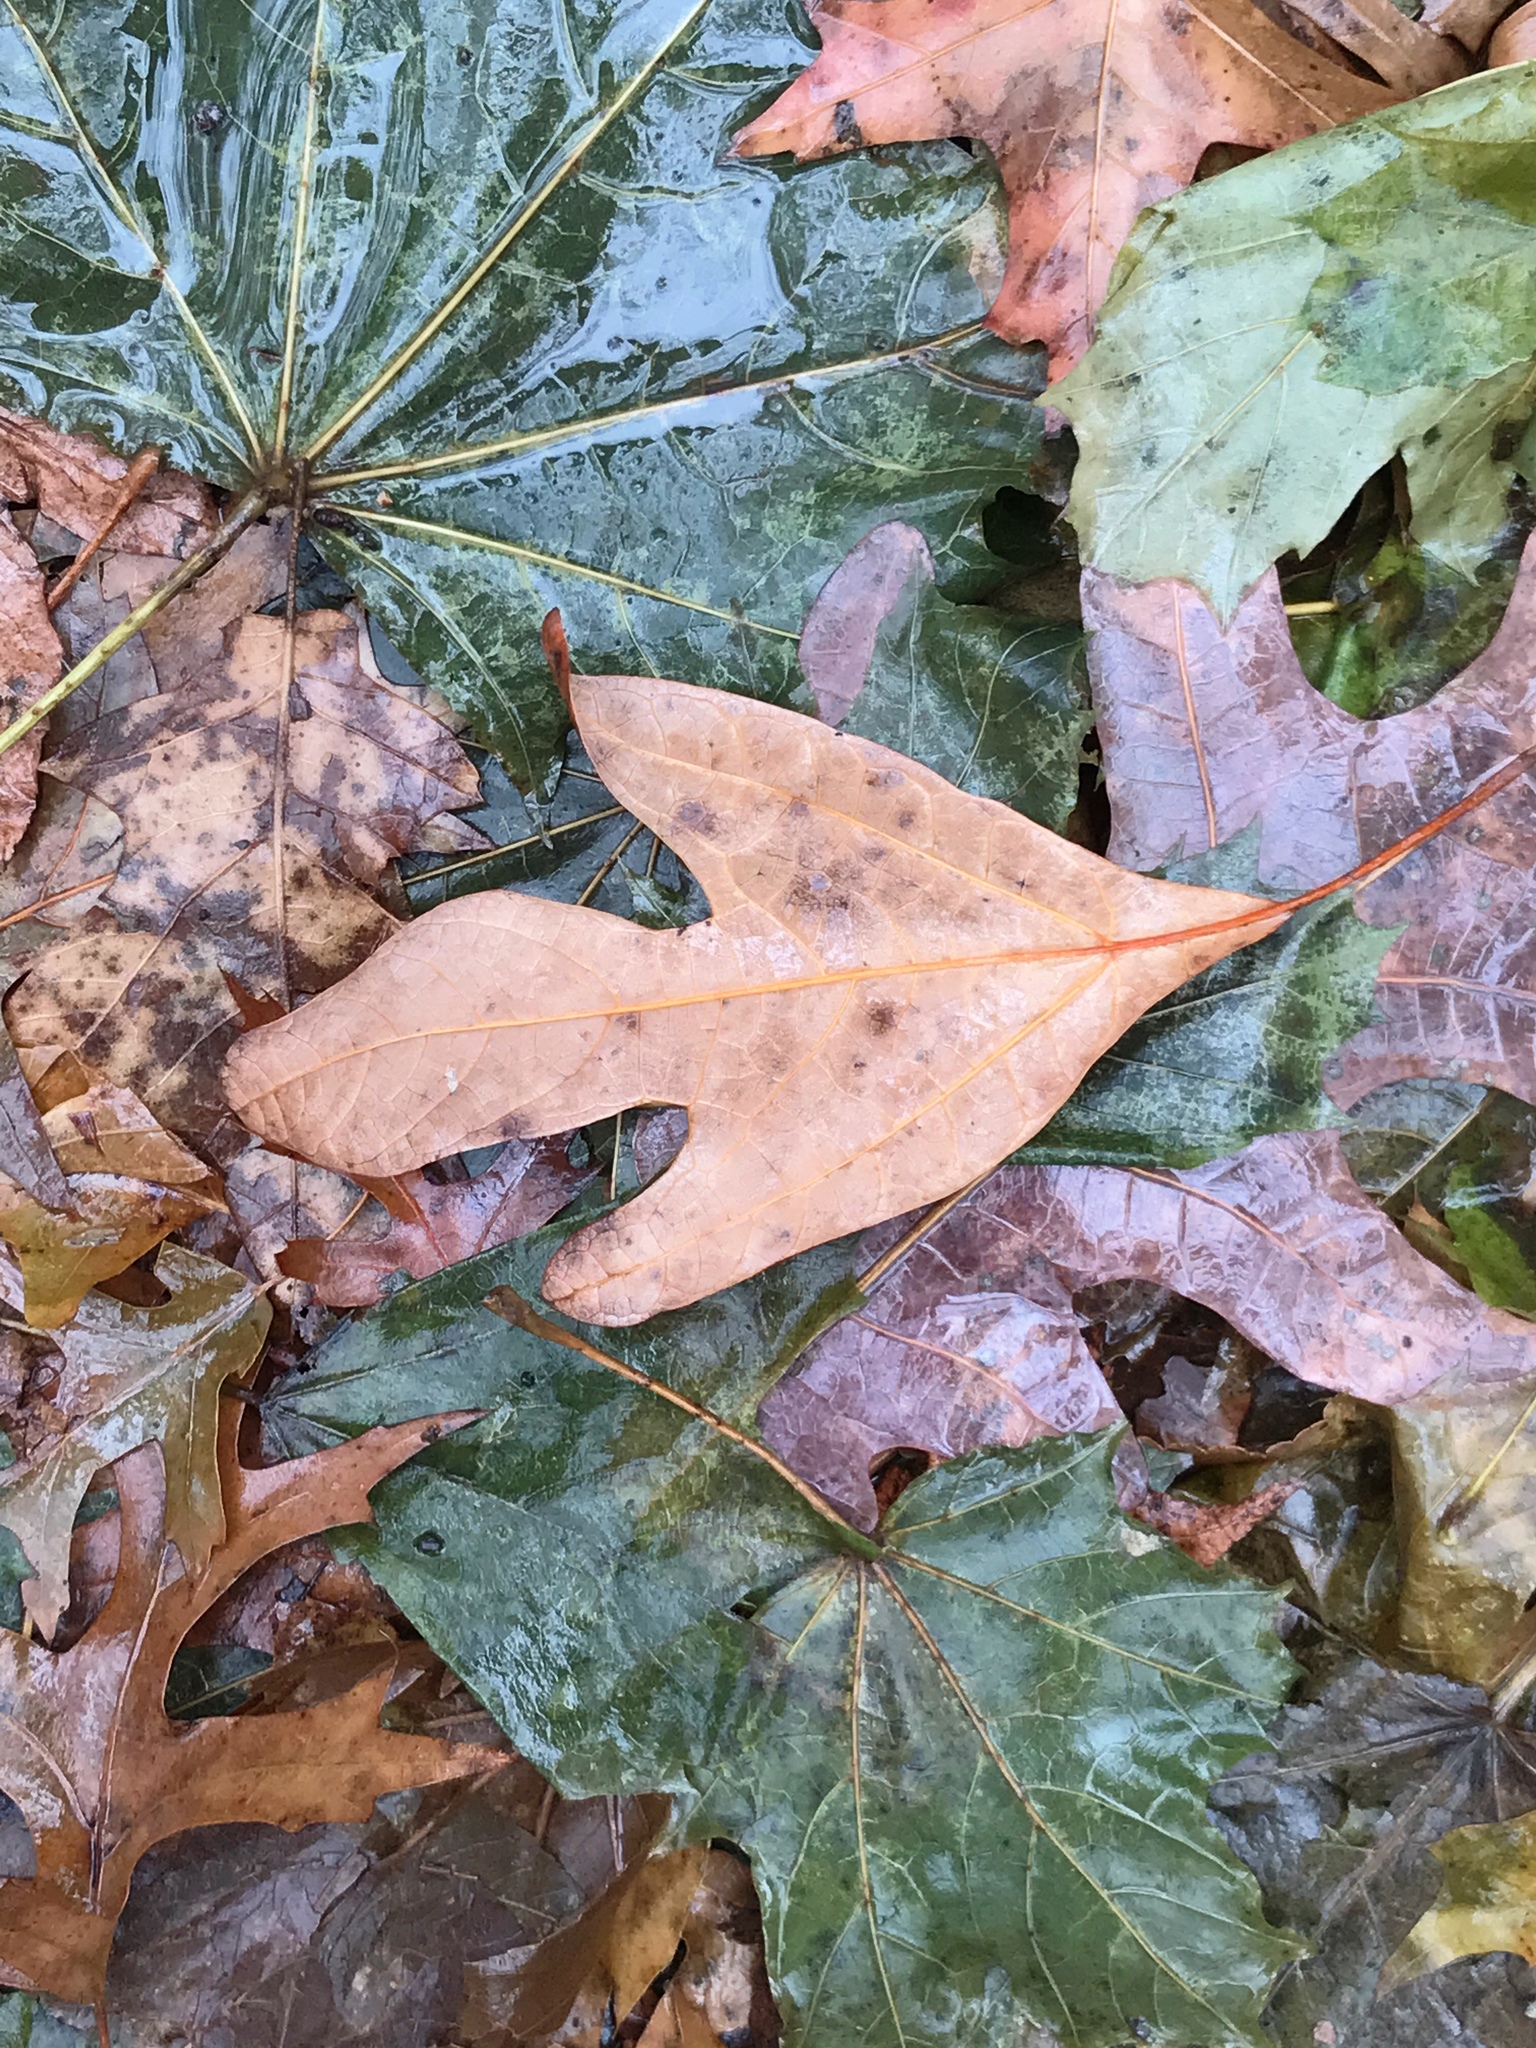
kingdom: Plantae
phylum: Tracheophyta
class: Magnoliopsida
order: Laurales
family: Lauraceae
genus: Sassafras
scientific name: Sassafras albidum
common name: Sassafras
